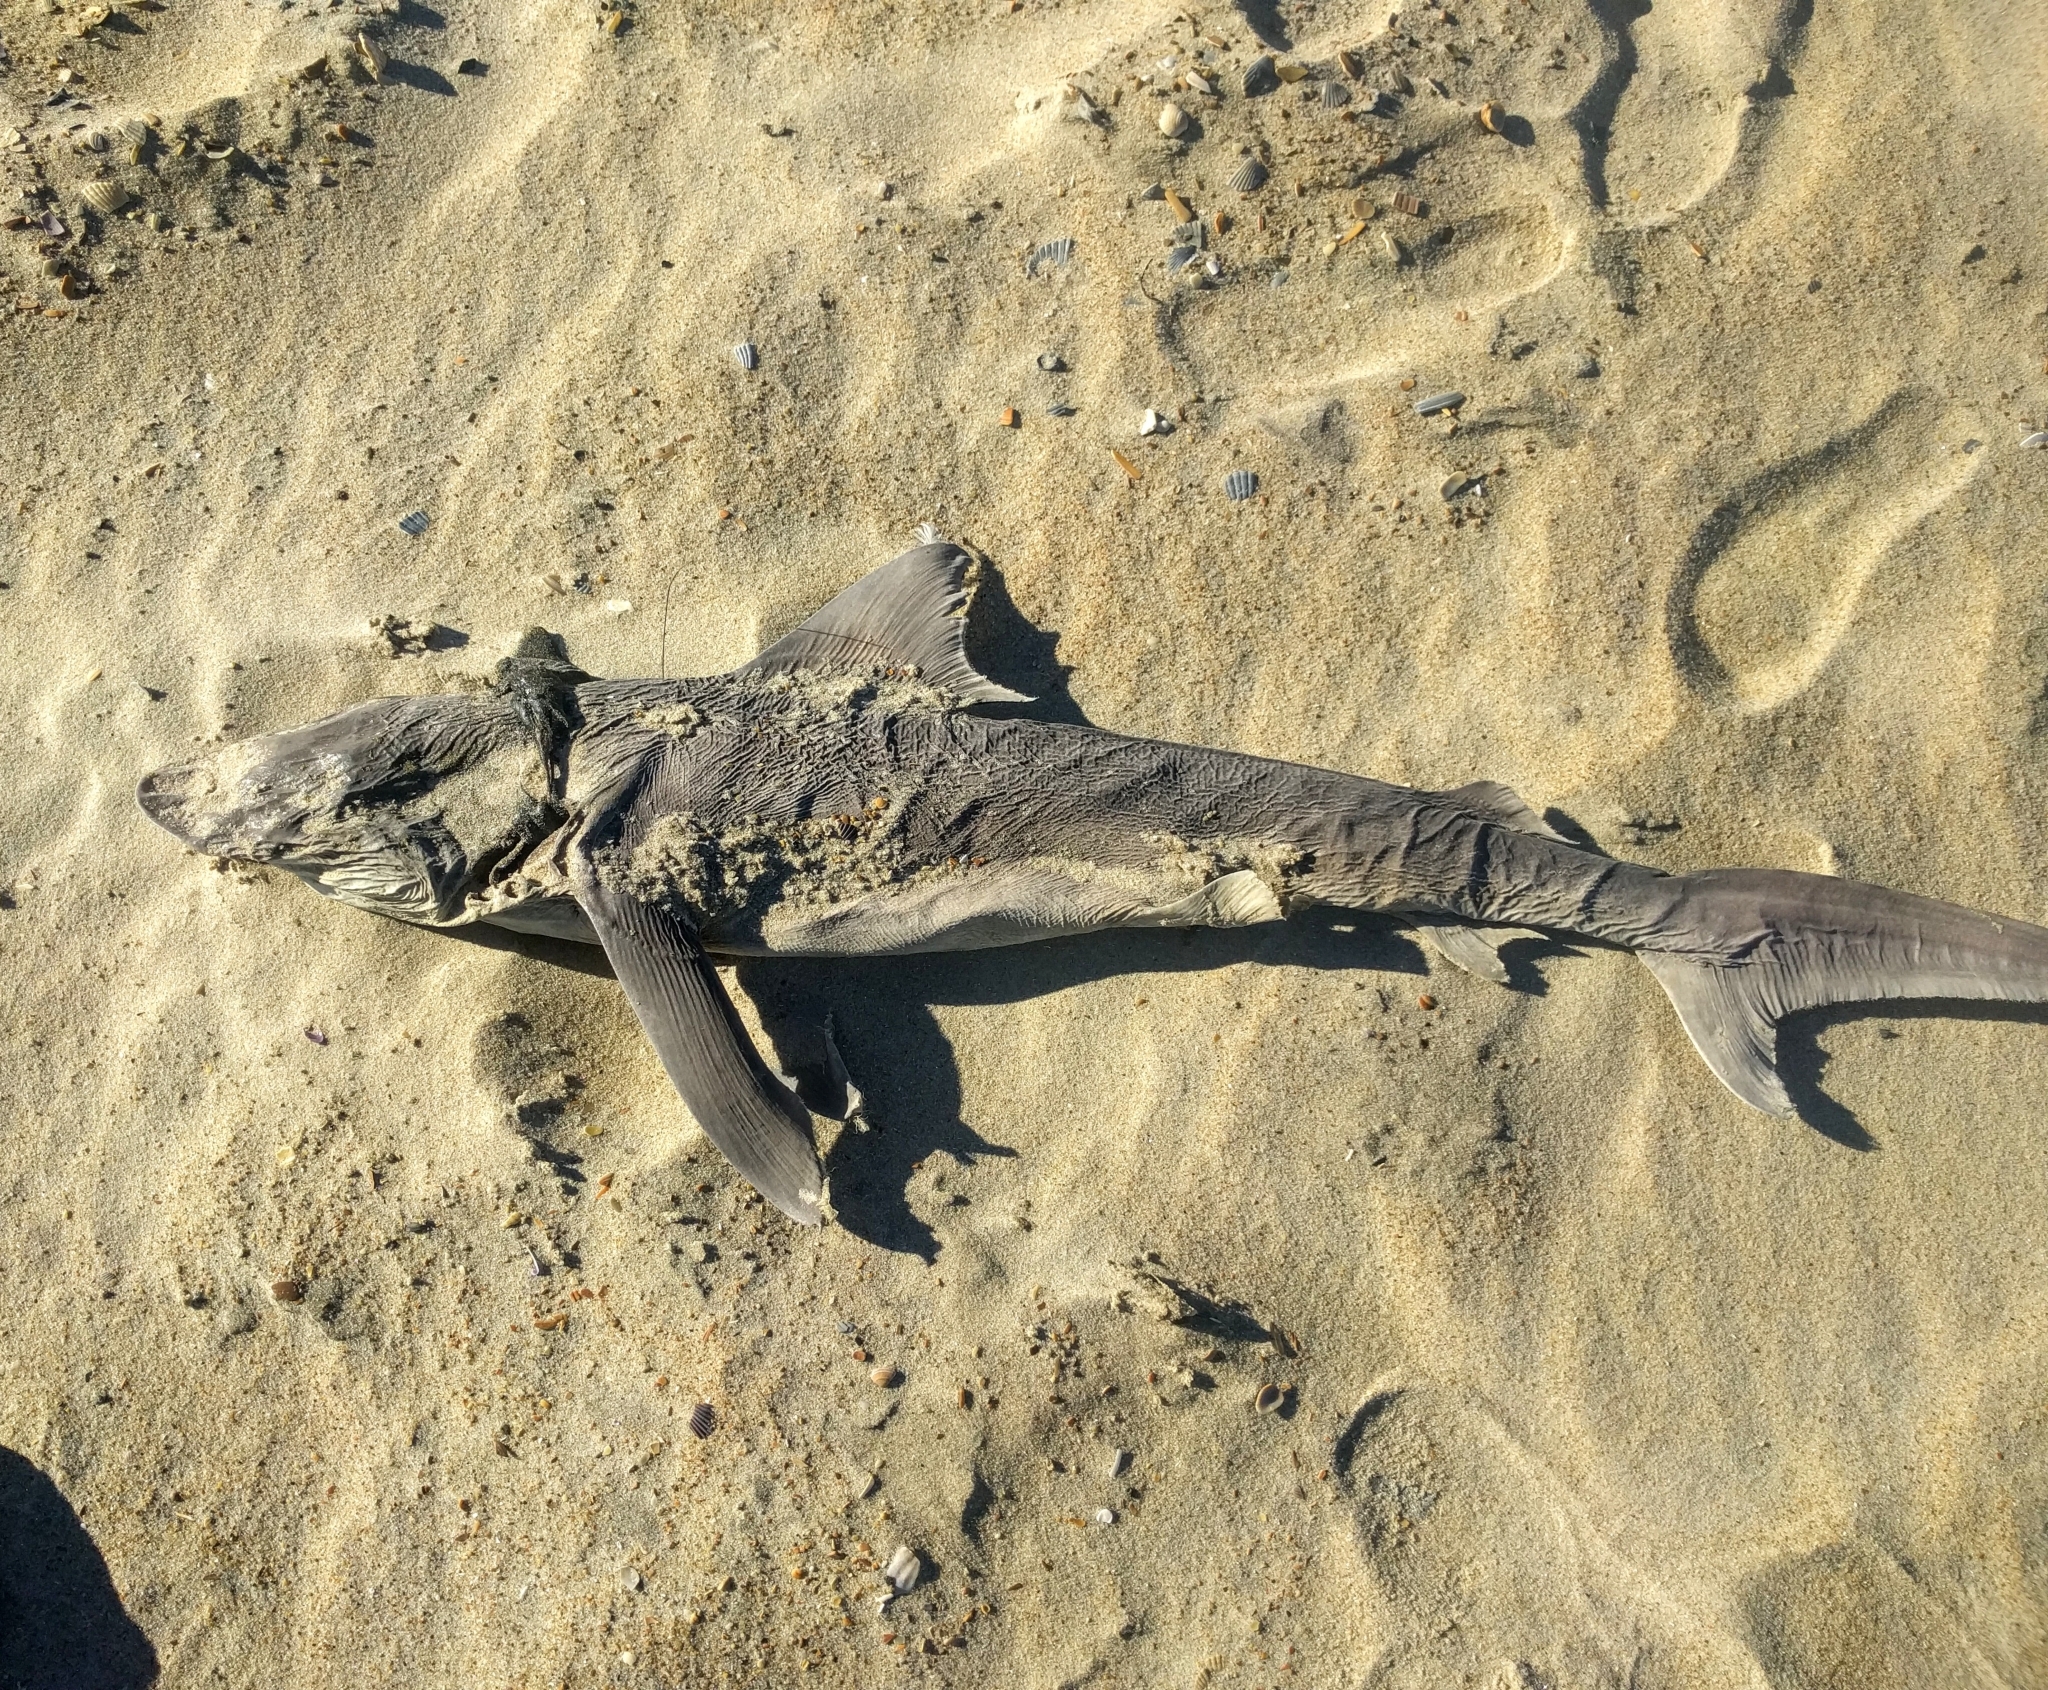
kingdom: Animalia
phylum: Chordata
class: Elasmobranchii
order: Carcharhiniformes
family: Carcharhinidae
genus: Carcharhinus
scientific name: Carcharhinus plumbeus
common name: Sandbar shark
